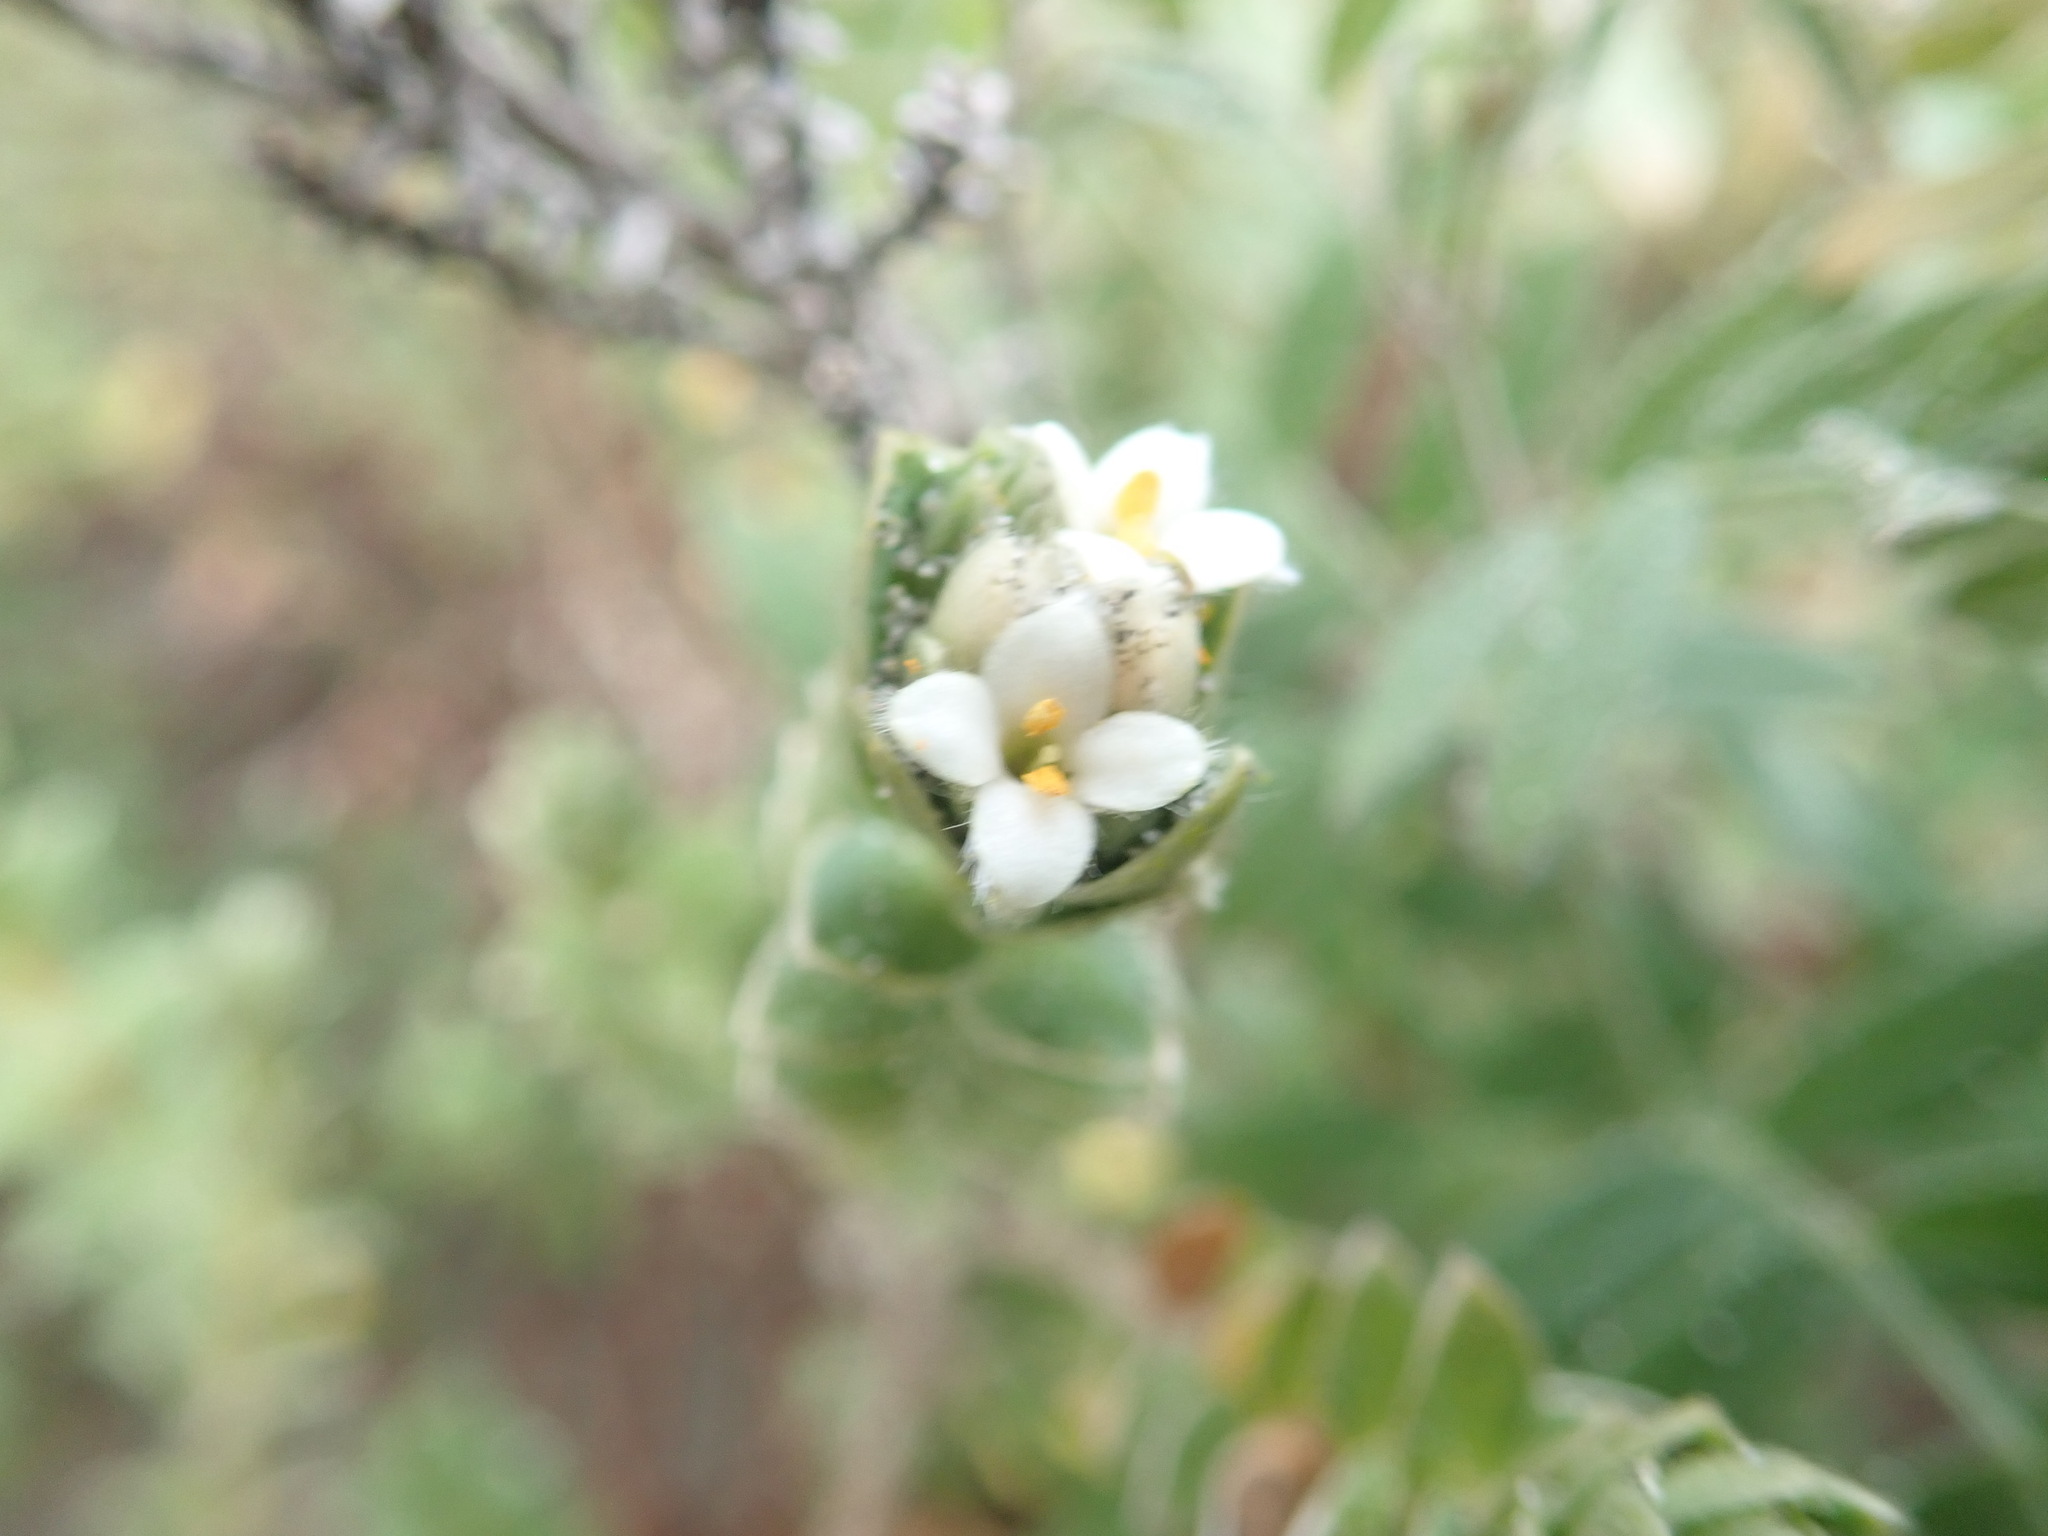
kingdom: Plantae
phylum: Tracheophyta
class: Magnoliopsida
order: Malvales
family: Thymelaeaceae
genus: Pimelea
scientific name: Pimelea villosa
